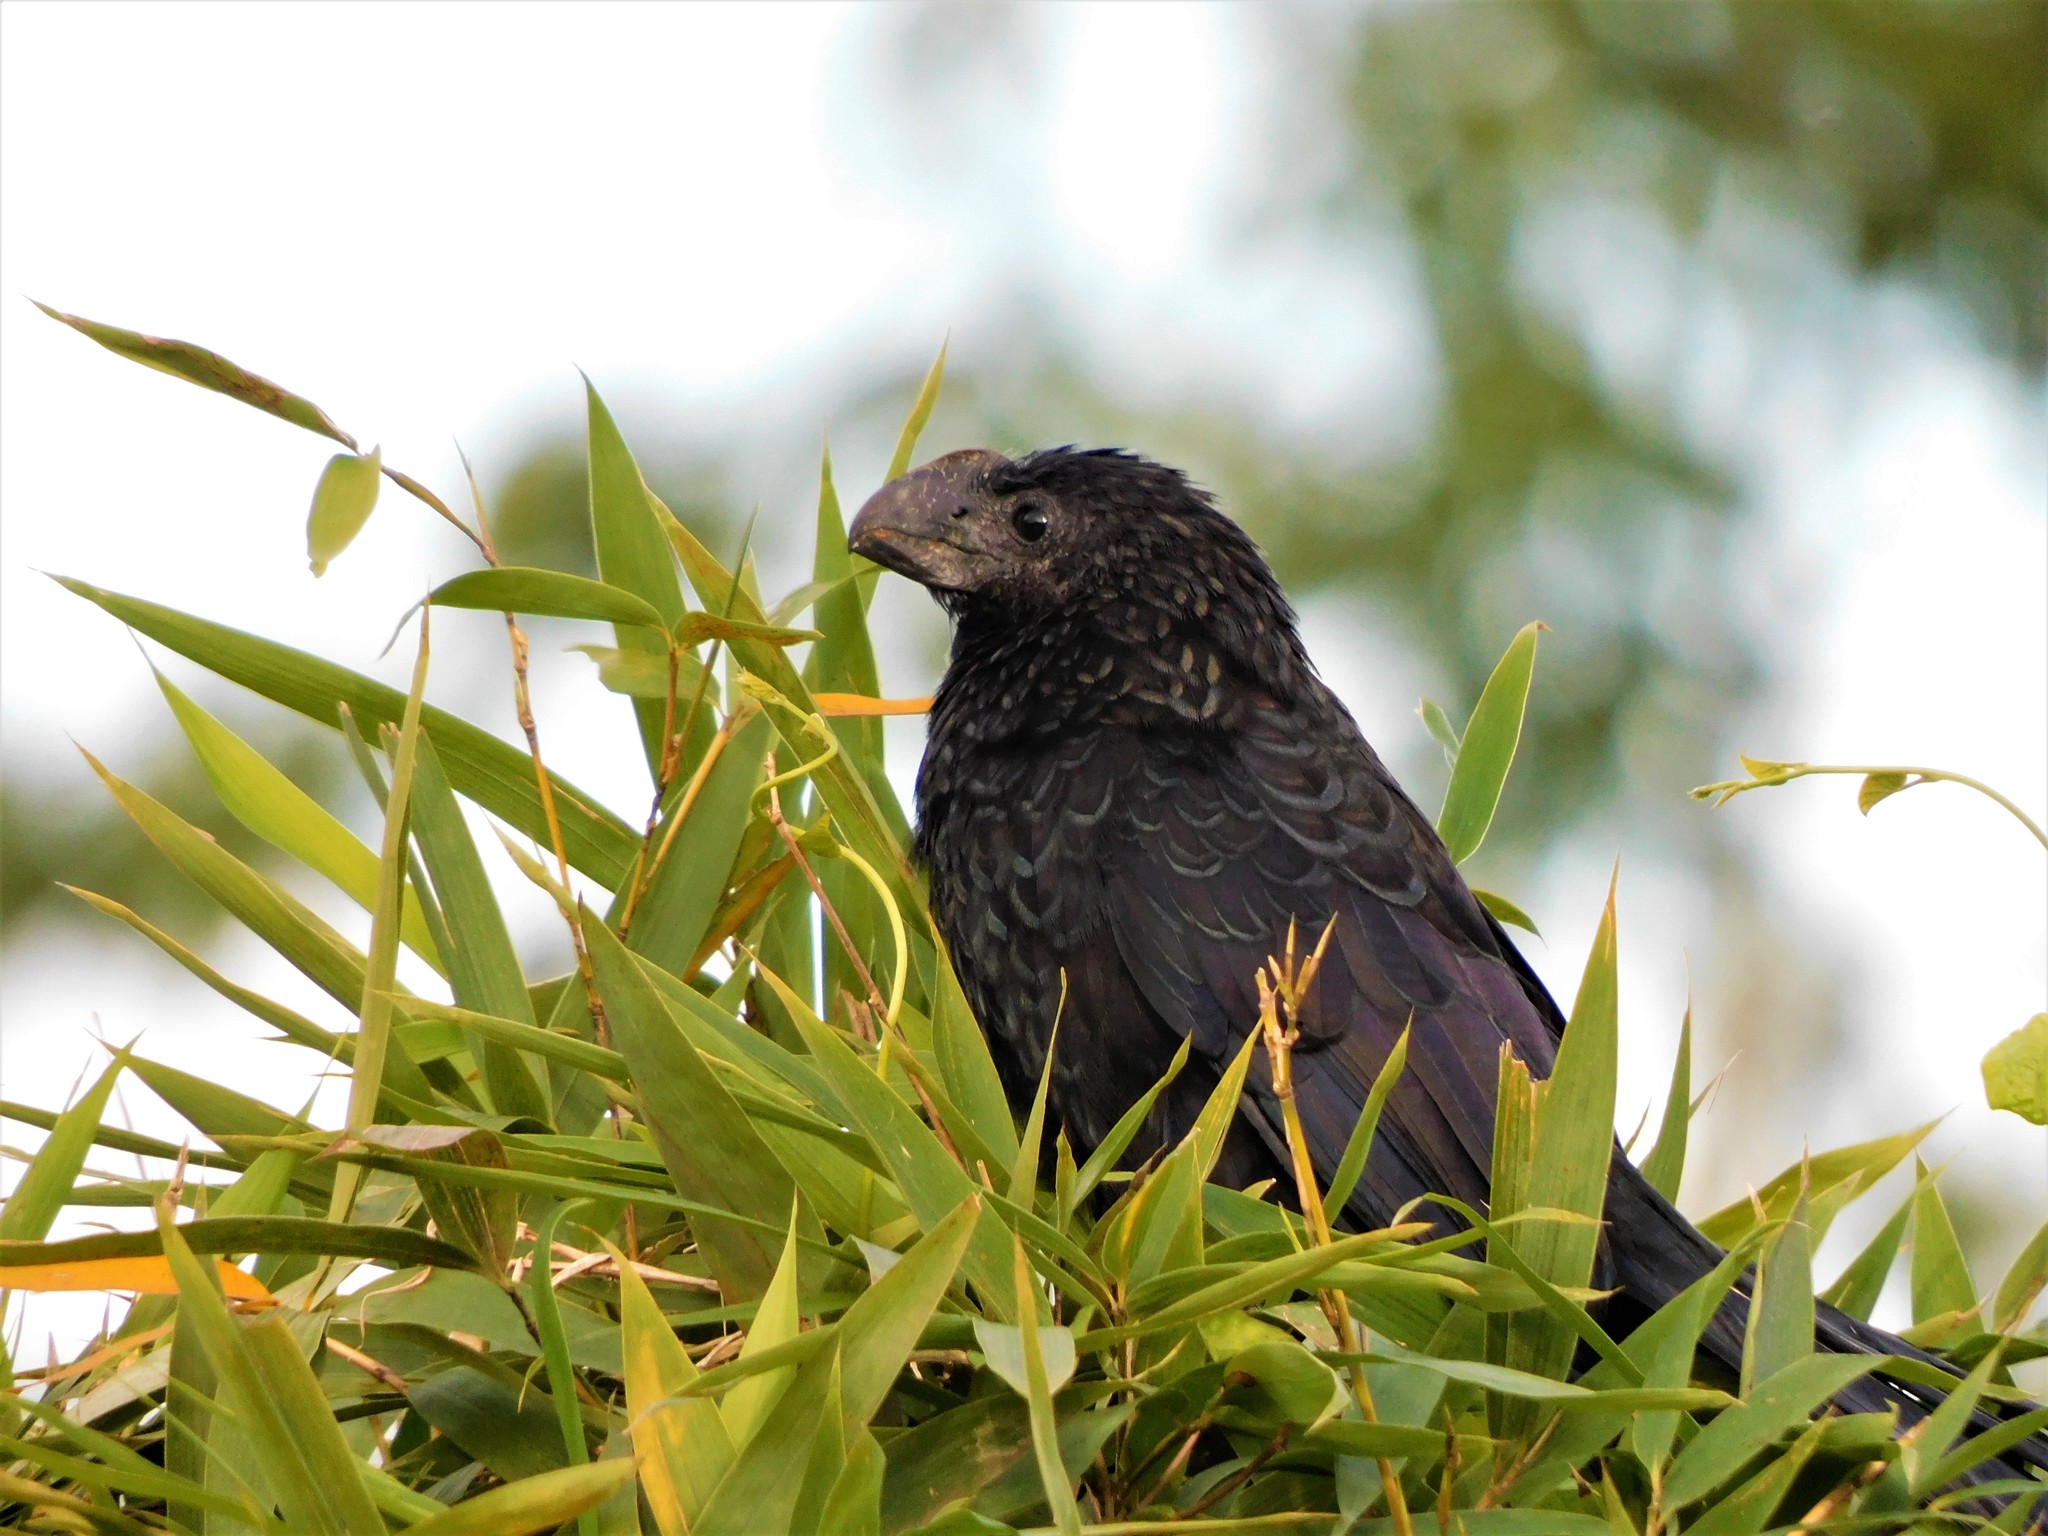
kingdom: Animalia
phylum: Chordata
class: Aves
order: Cuculiformes
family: Cuculidae
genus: Crotophaga
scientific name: Crotophaga ani
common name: Smooth-billed ani
